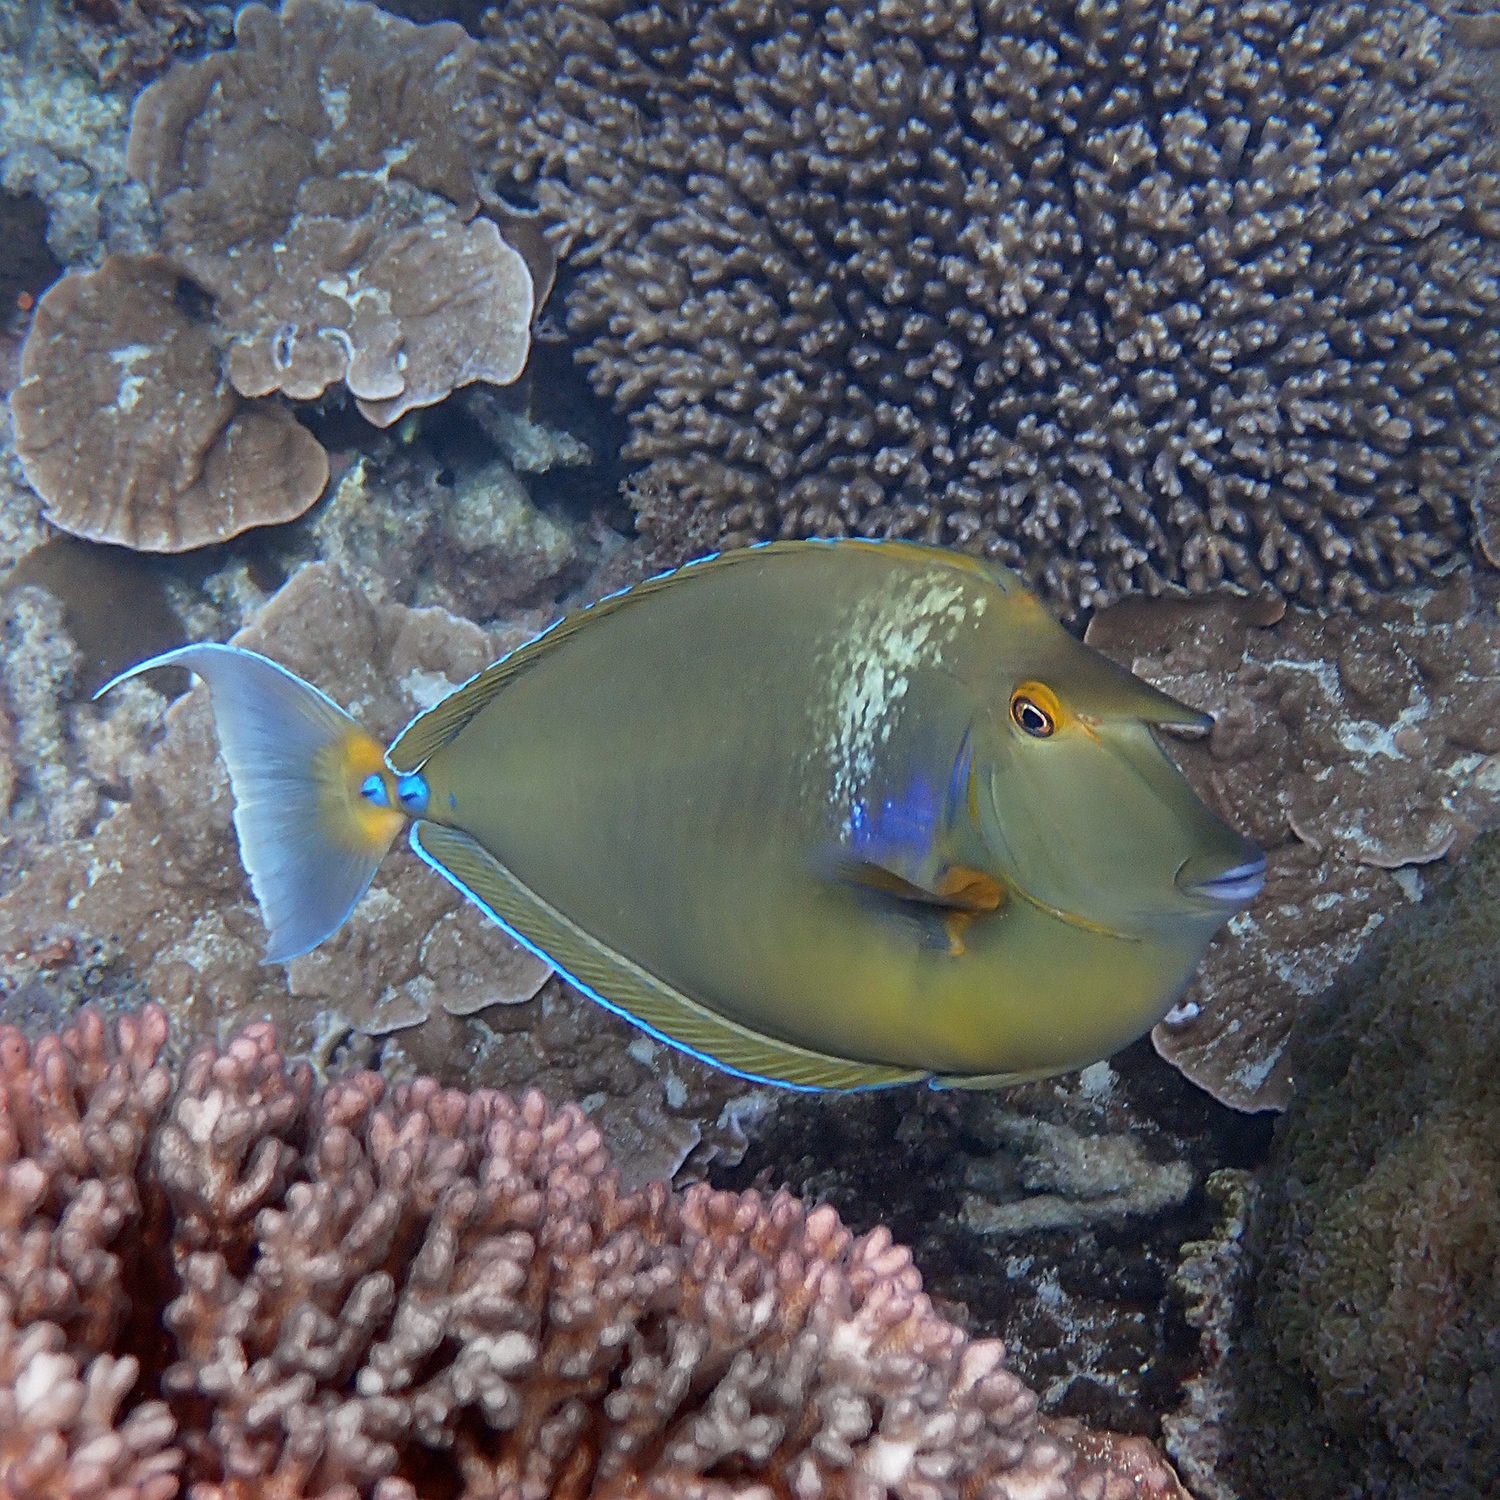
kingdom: Animalia
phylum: Chordata
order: Perciformes
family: Acanthuridae
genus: Naso
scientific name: Naso unicornis
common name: Bluespine unicornfish
